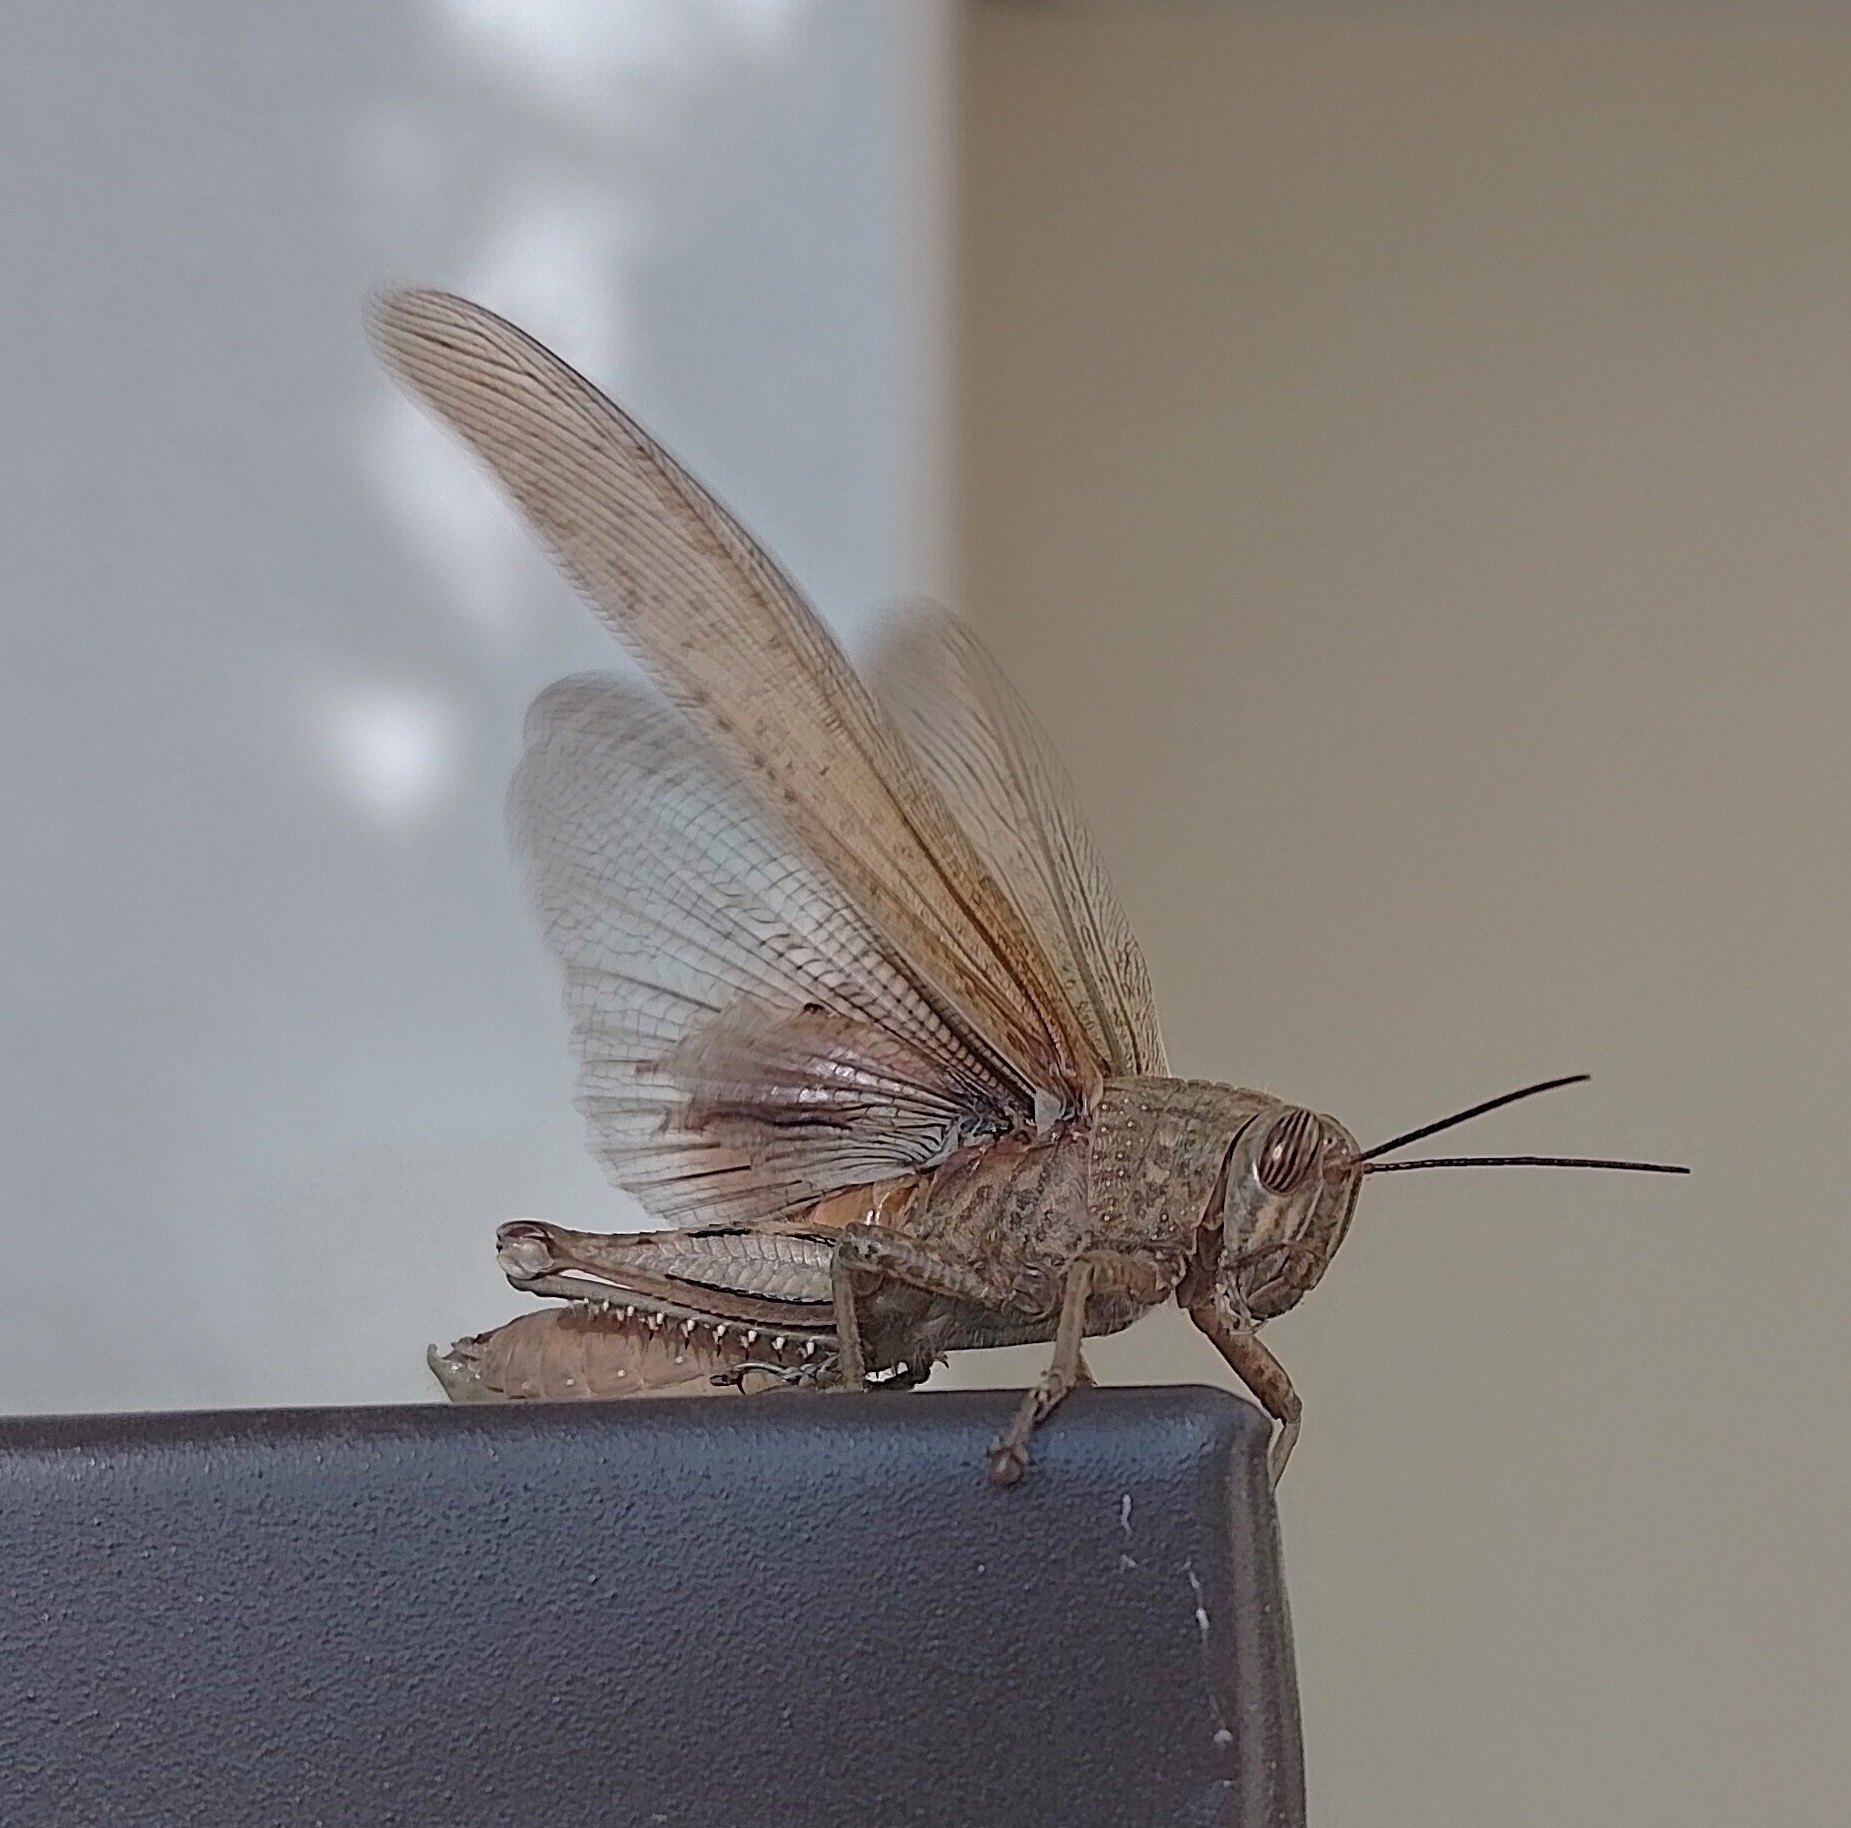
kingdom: Animalia
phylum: Arthropoda
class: Insecta
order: Orthoptera
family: Acrididae
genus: Anacridium
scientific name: Anacridium aegyptium
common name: Egyptian grasshopper
